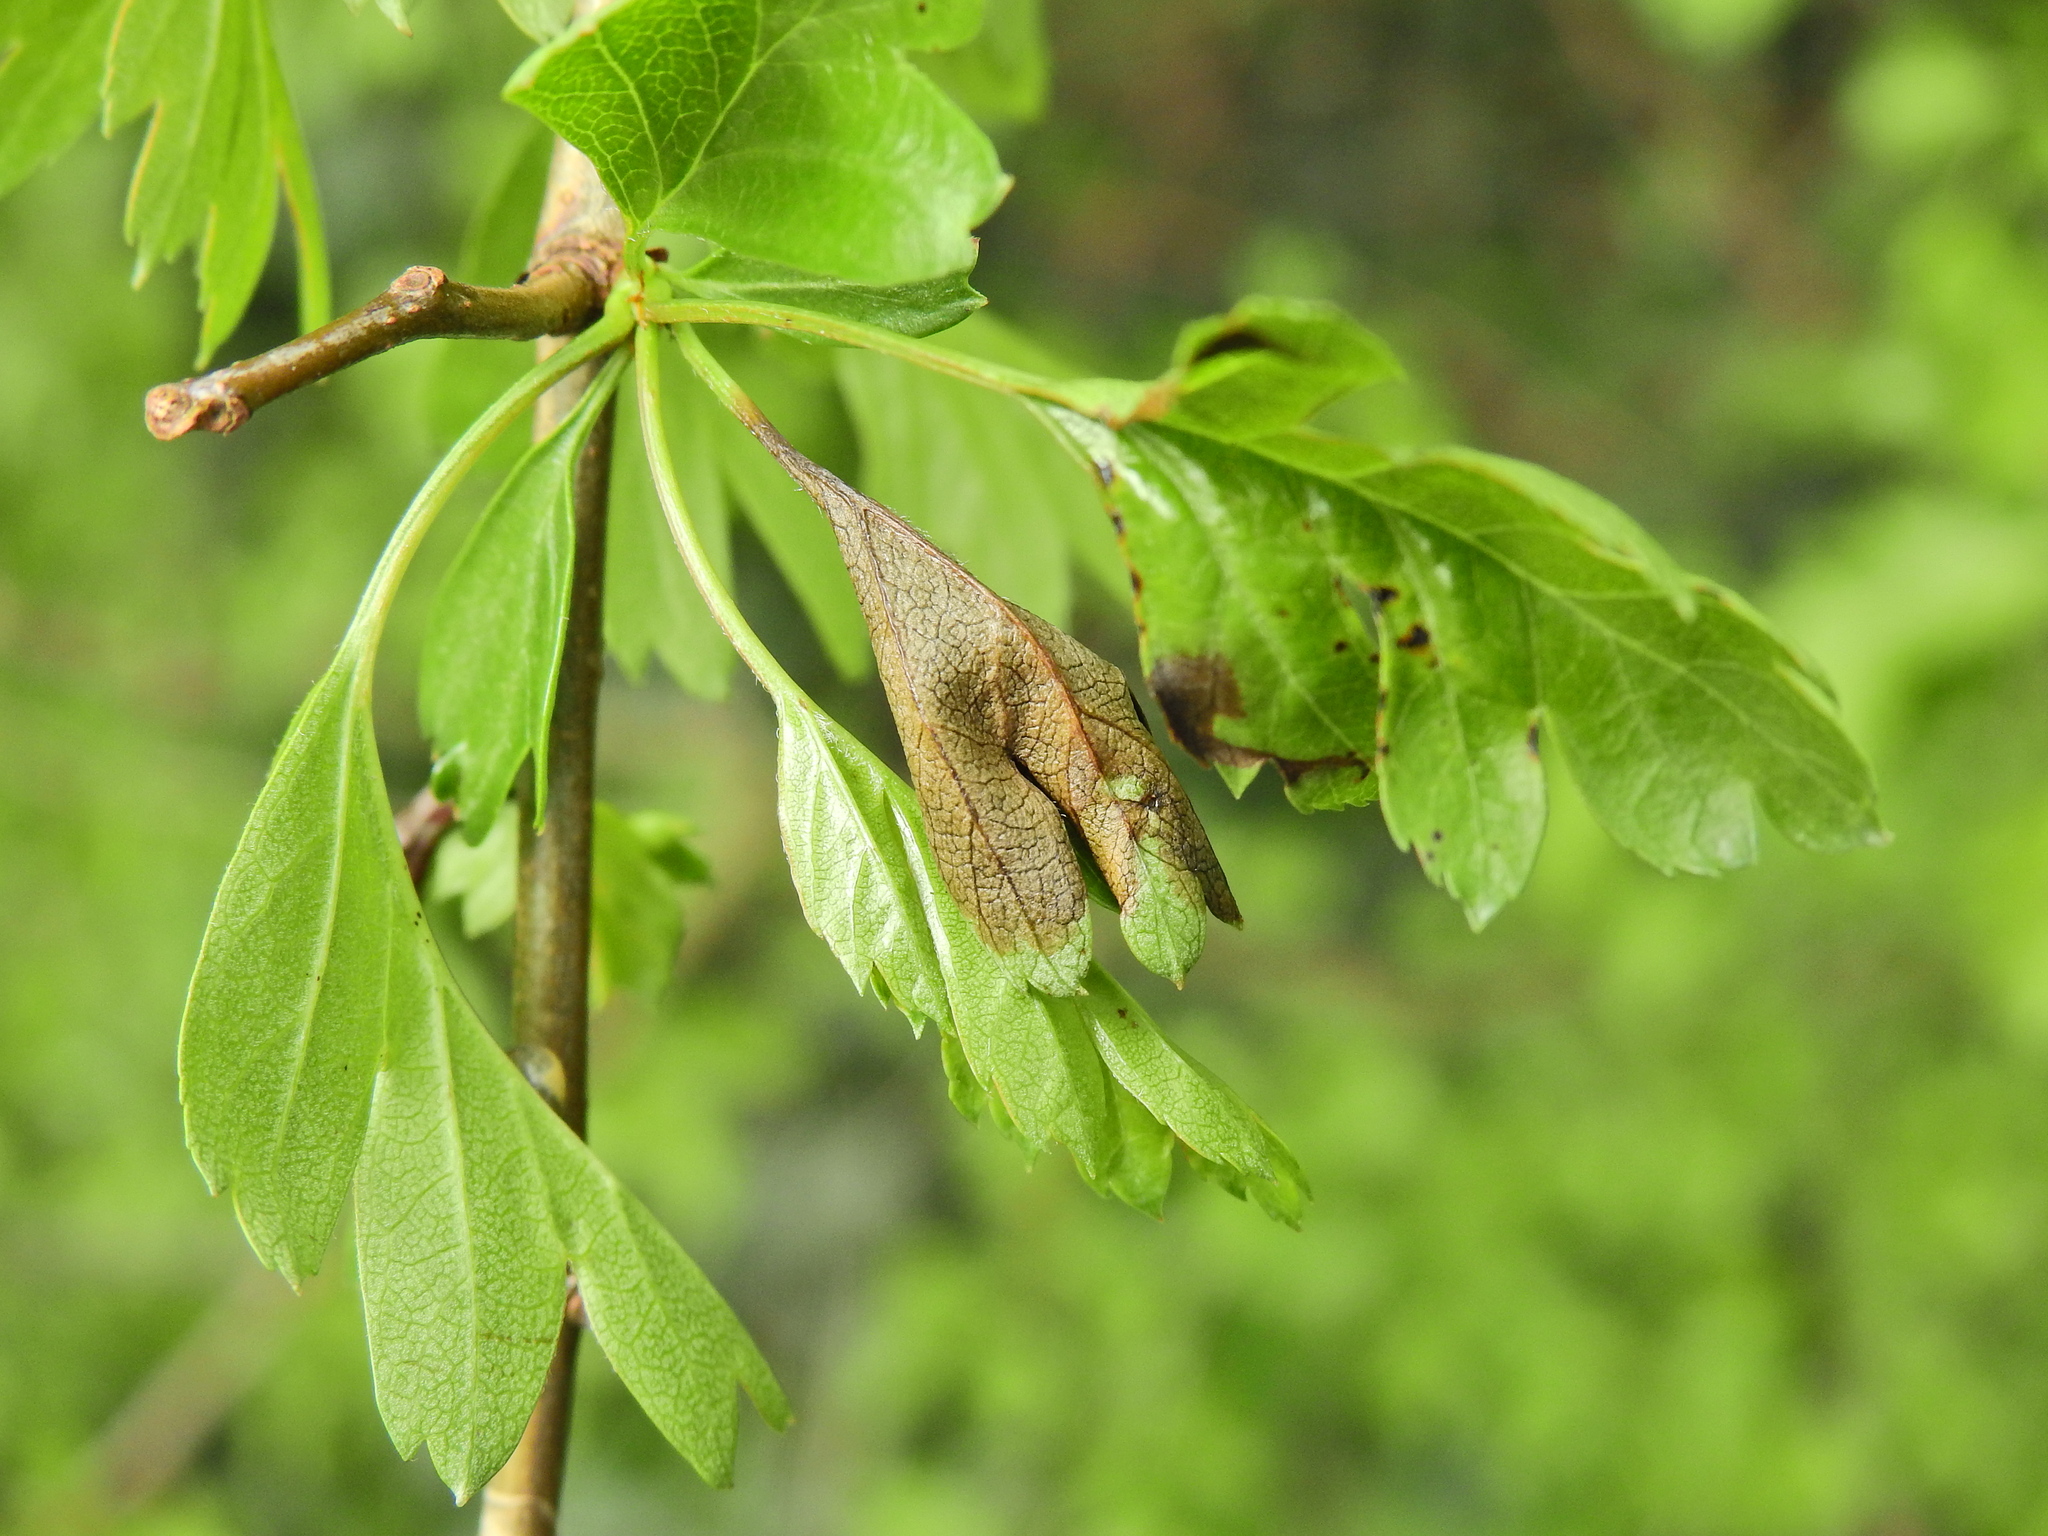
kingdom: Fungi
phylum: Ascomycota
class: Leotiomycetes
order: Helotiales
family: Sclerotiniaceae
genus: Monilinia
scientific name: Monilinia johnsonii
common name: Haw goblet
